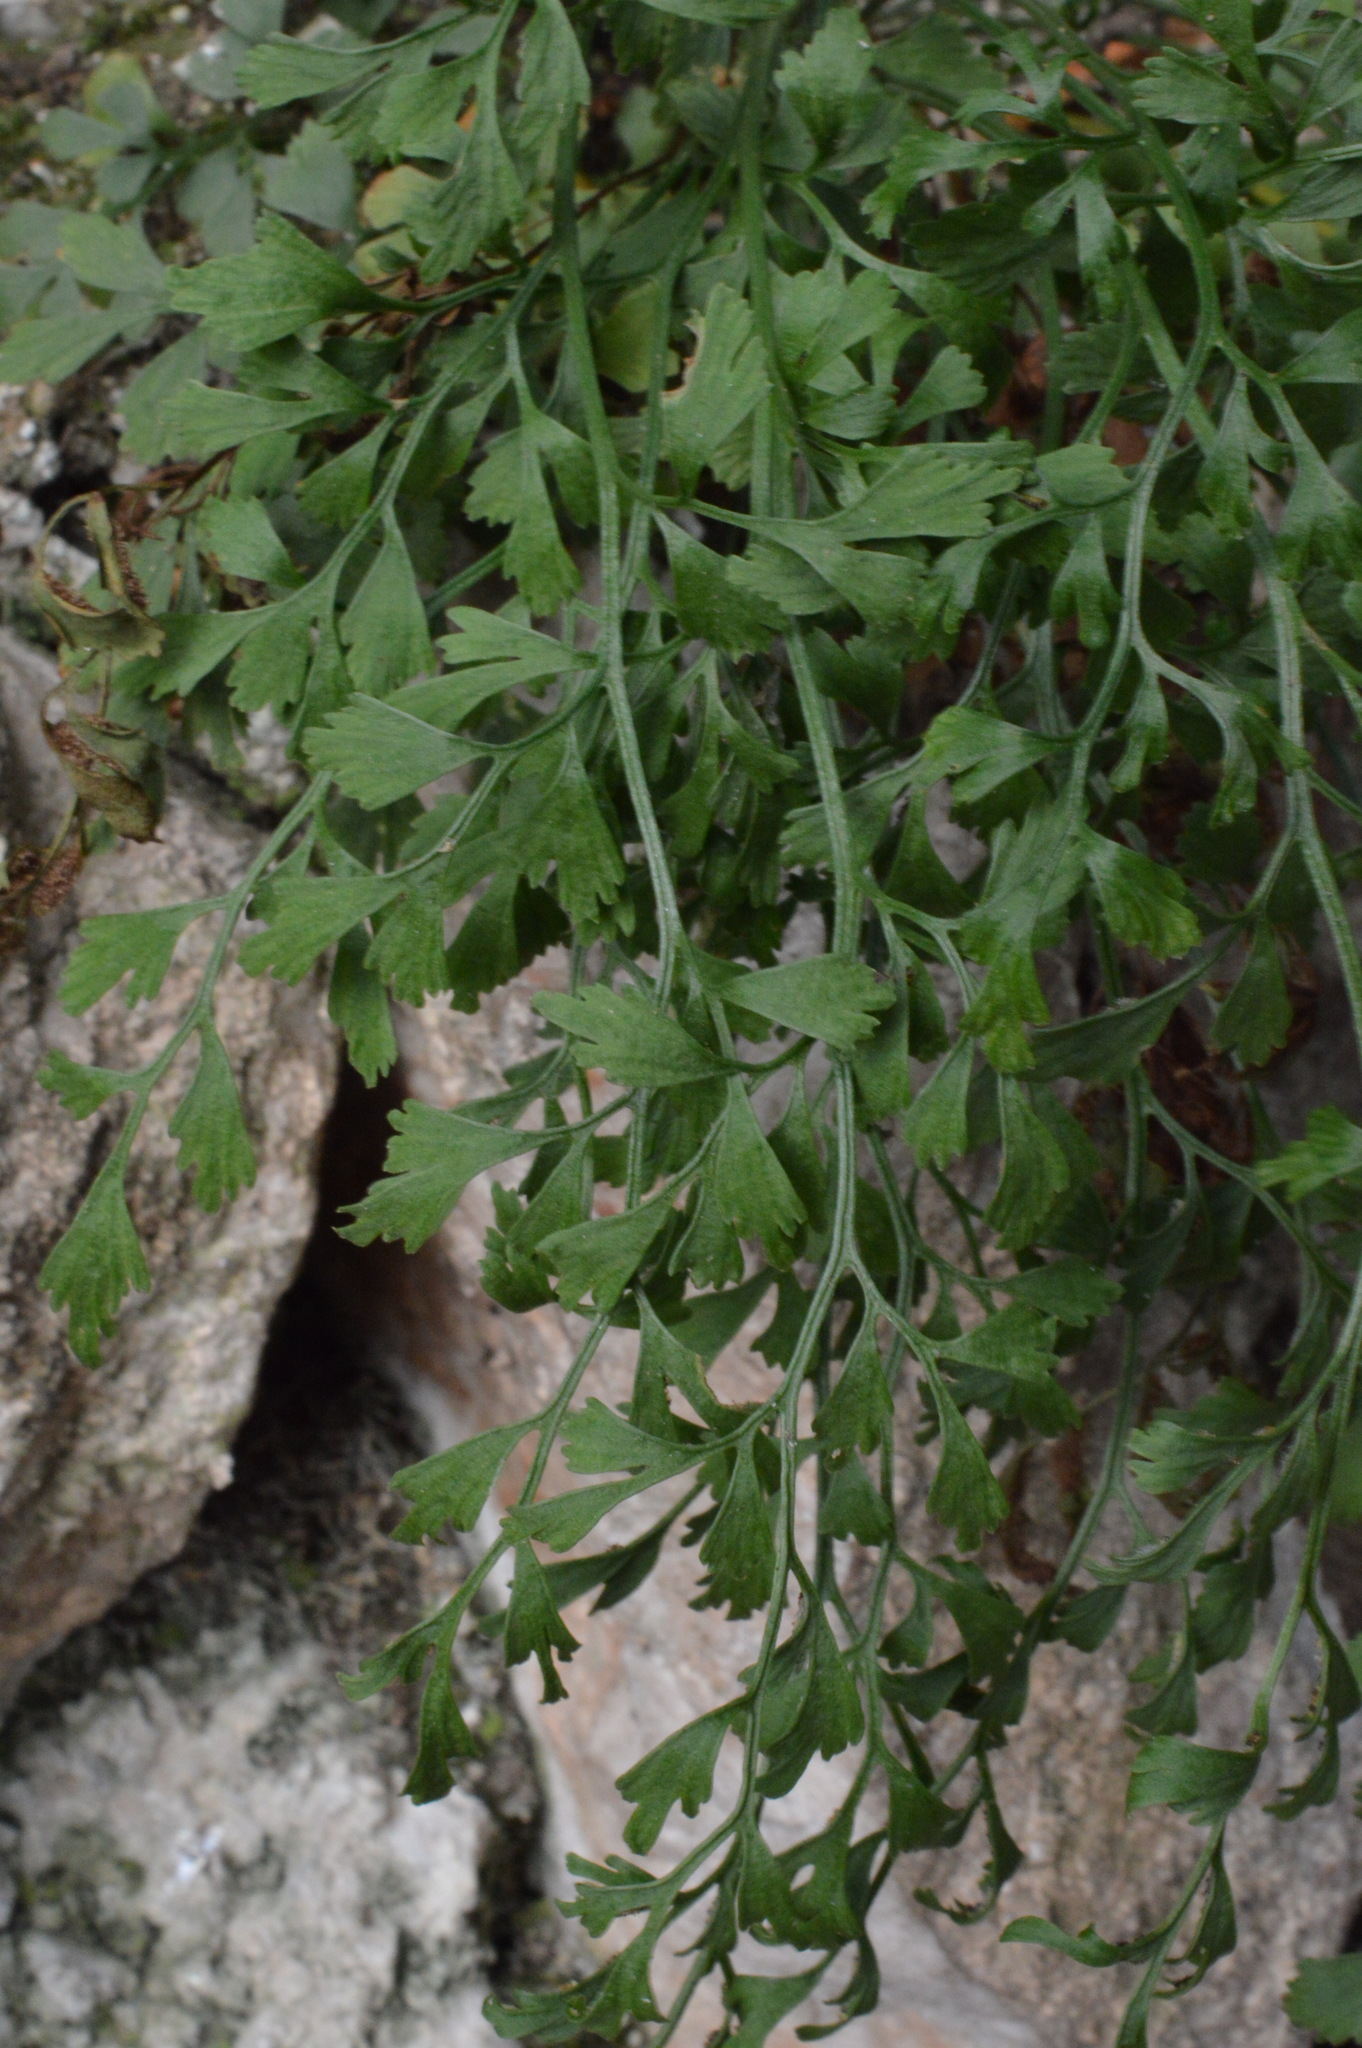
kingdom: Plantae
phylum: Tracheophyta
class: Polypodiopsida
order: Polypodiales
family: Aspleniaceae
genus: Asplenium
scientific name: Asplenium ruta-muraria
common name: Wall-rue
